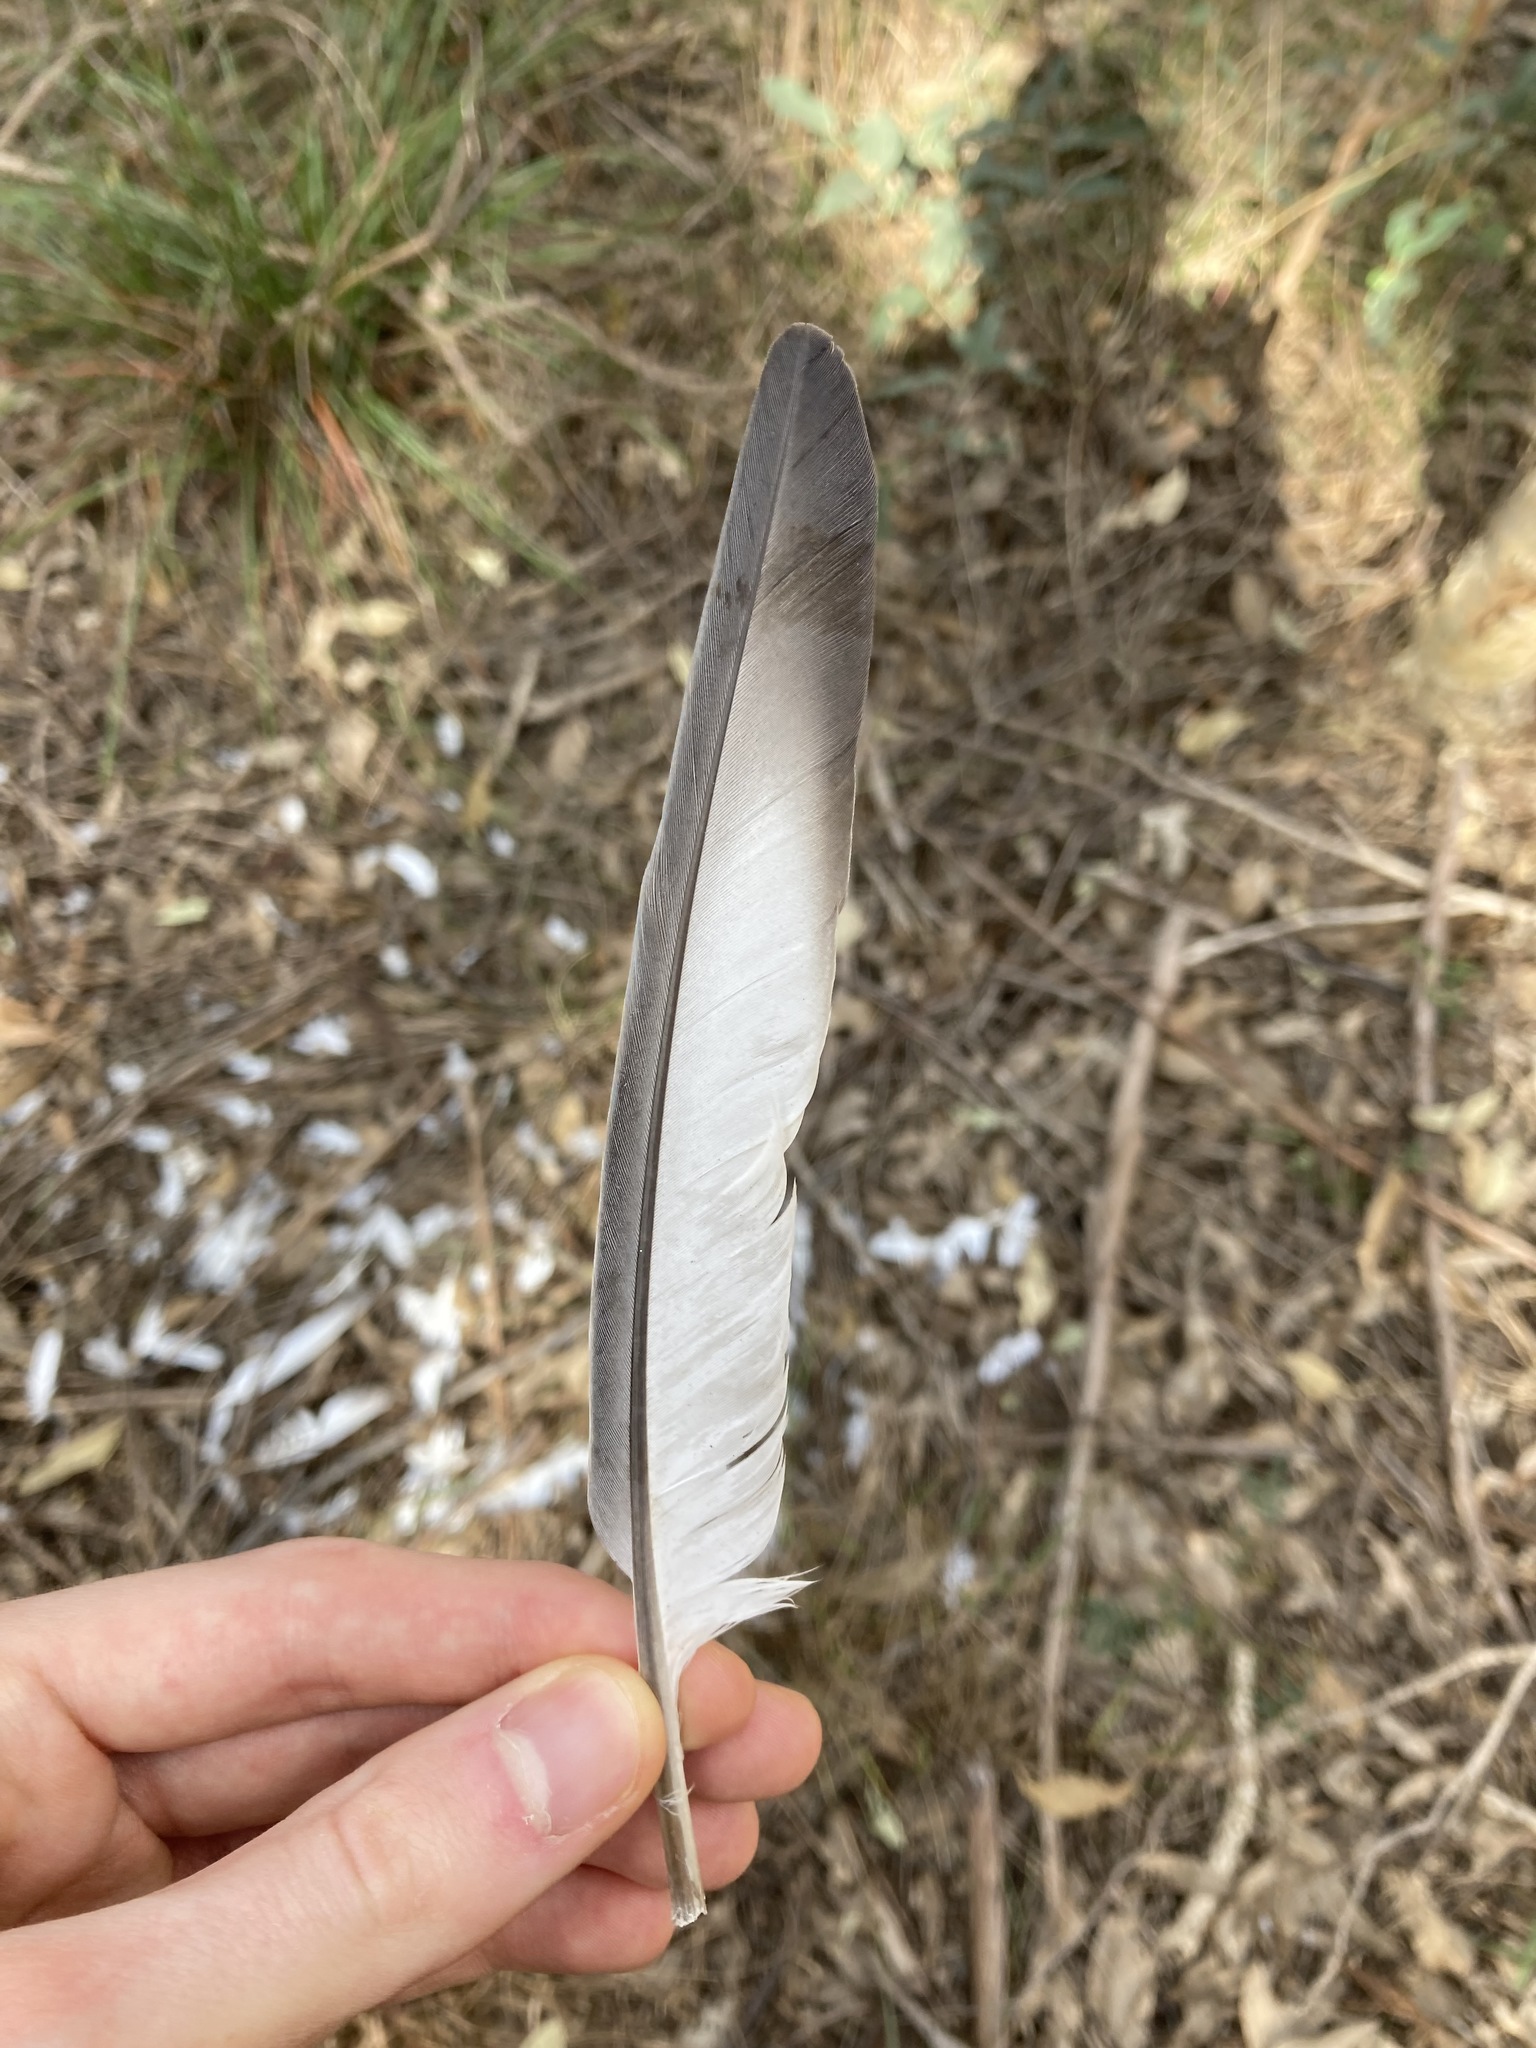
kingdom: Animalia
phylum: Chordata
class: Aves
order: Columbiformes
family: Columbidae
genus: Columba
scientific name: Columba livia
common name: Rock pigeon
